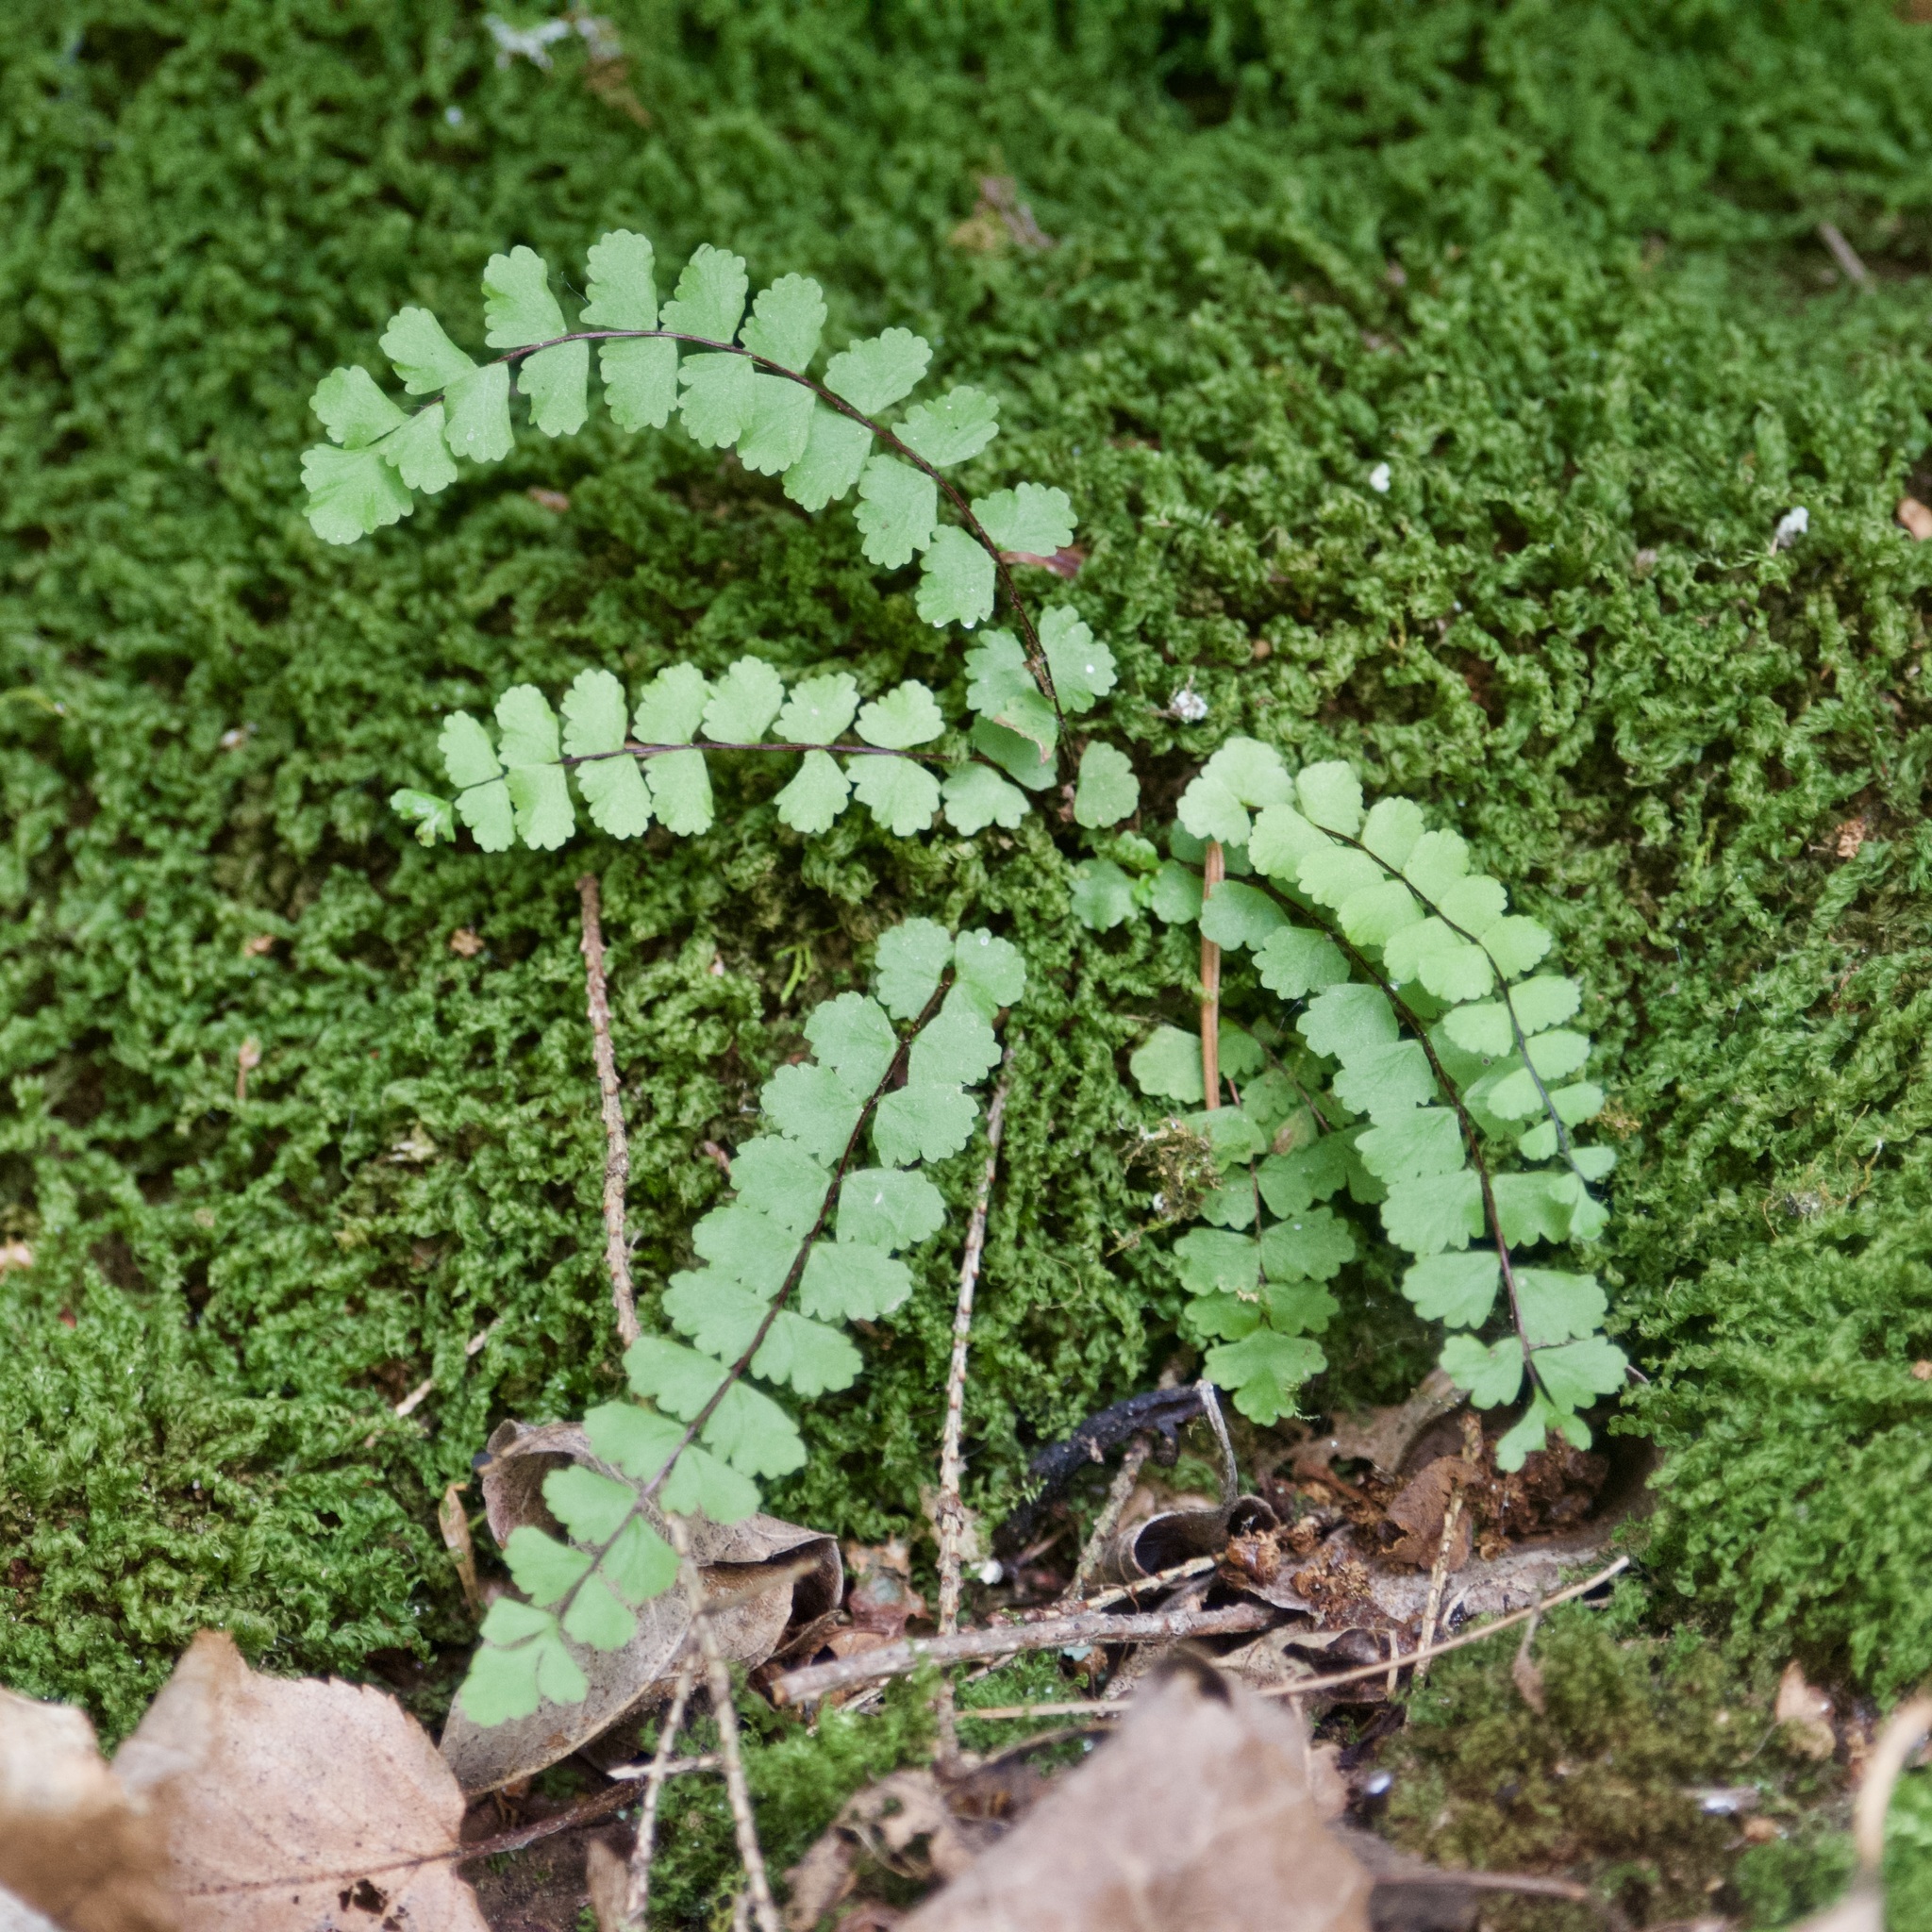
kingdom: Plantae
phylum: Tracheophyta
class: Polypodiopsida
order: Polypodiales
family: Aspleniaceae
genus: Asplenium
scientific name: Asplenium trichomanes
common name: Maidenhair spleenwort
